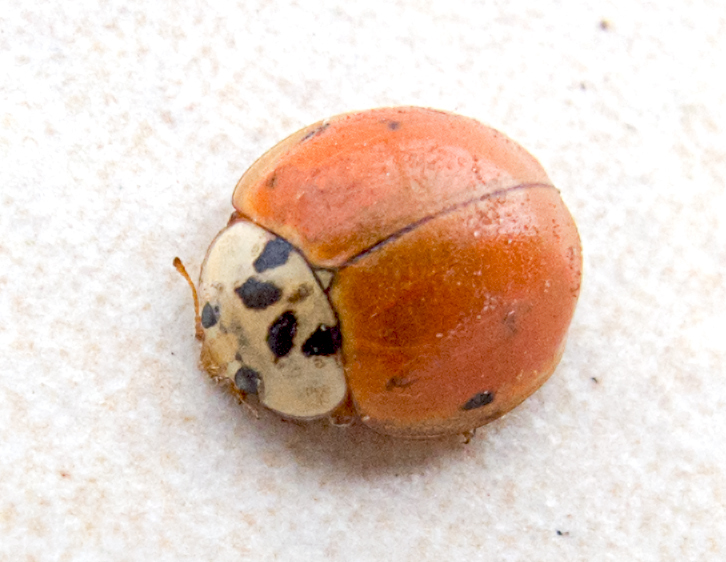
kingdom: Animalia
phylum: Arthropoda
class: Insecta
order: Coleoptera
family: Coccinellidae
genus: Harmonia
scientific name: Harmonia axyridis
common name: Harlequin ladybird
